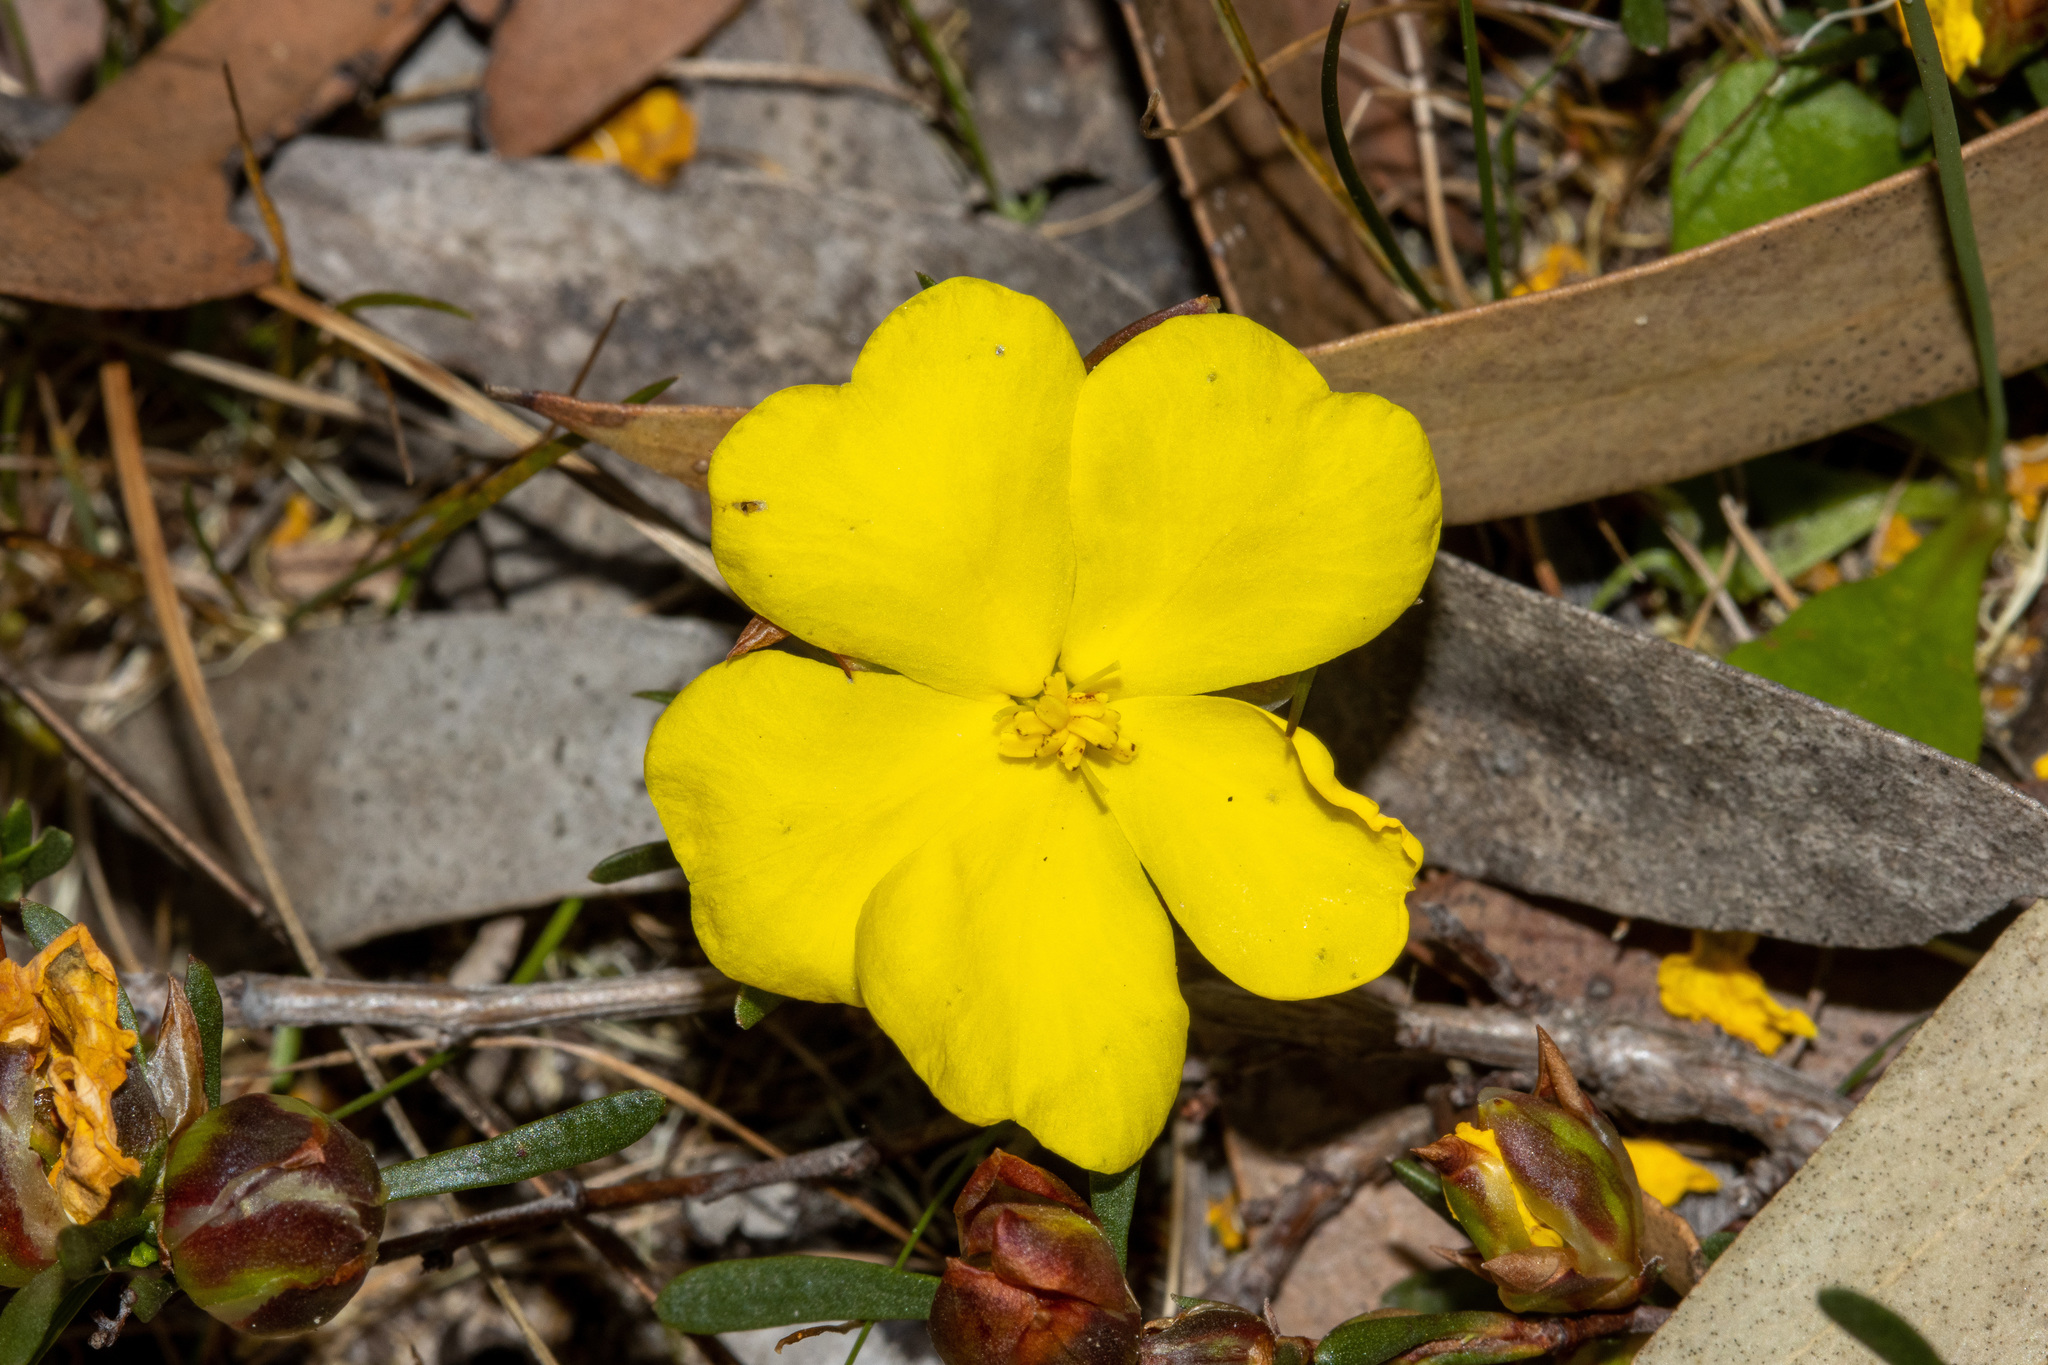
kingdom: Plantae
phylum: Tracheophyta
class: Magnoliopsida
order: Dilleniales
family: Dilleniaceae
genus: Hibbertia
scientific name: Hibbertia virgata
